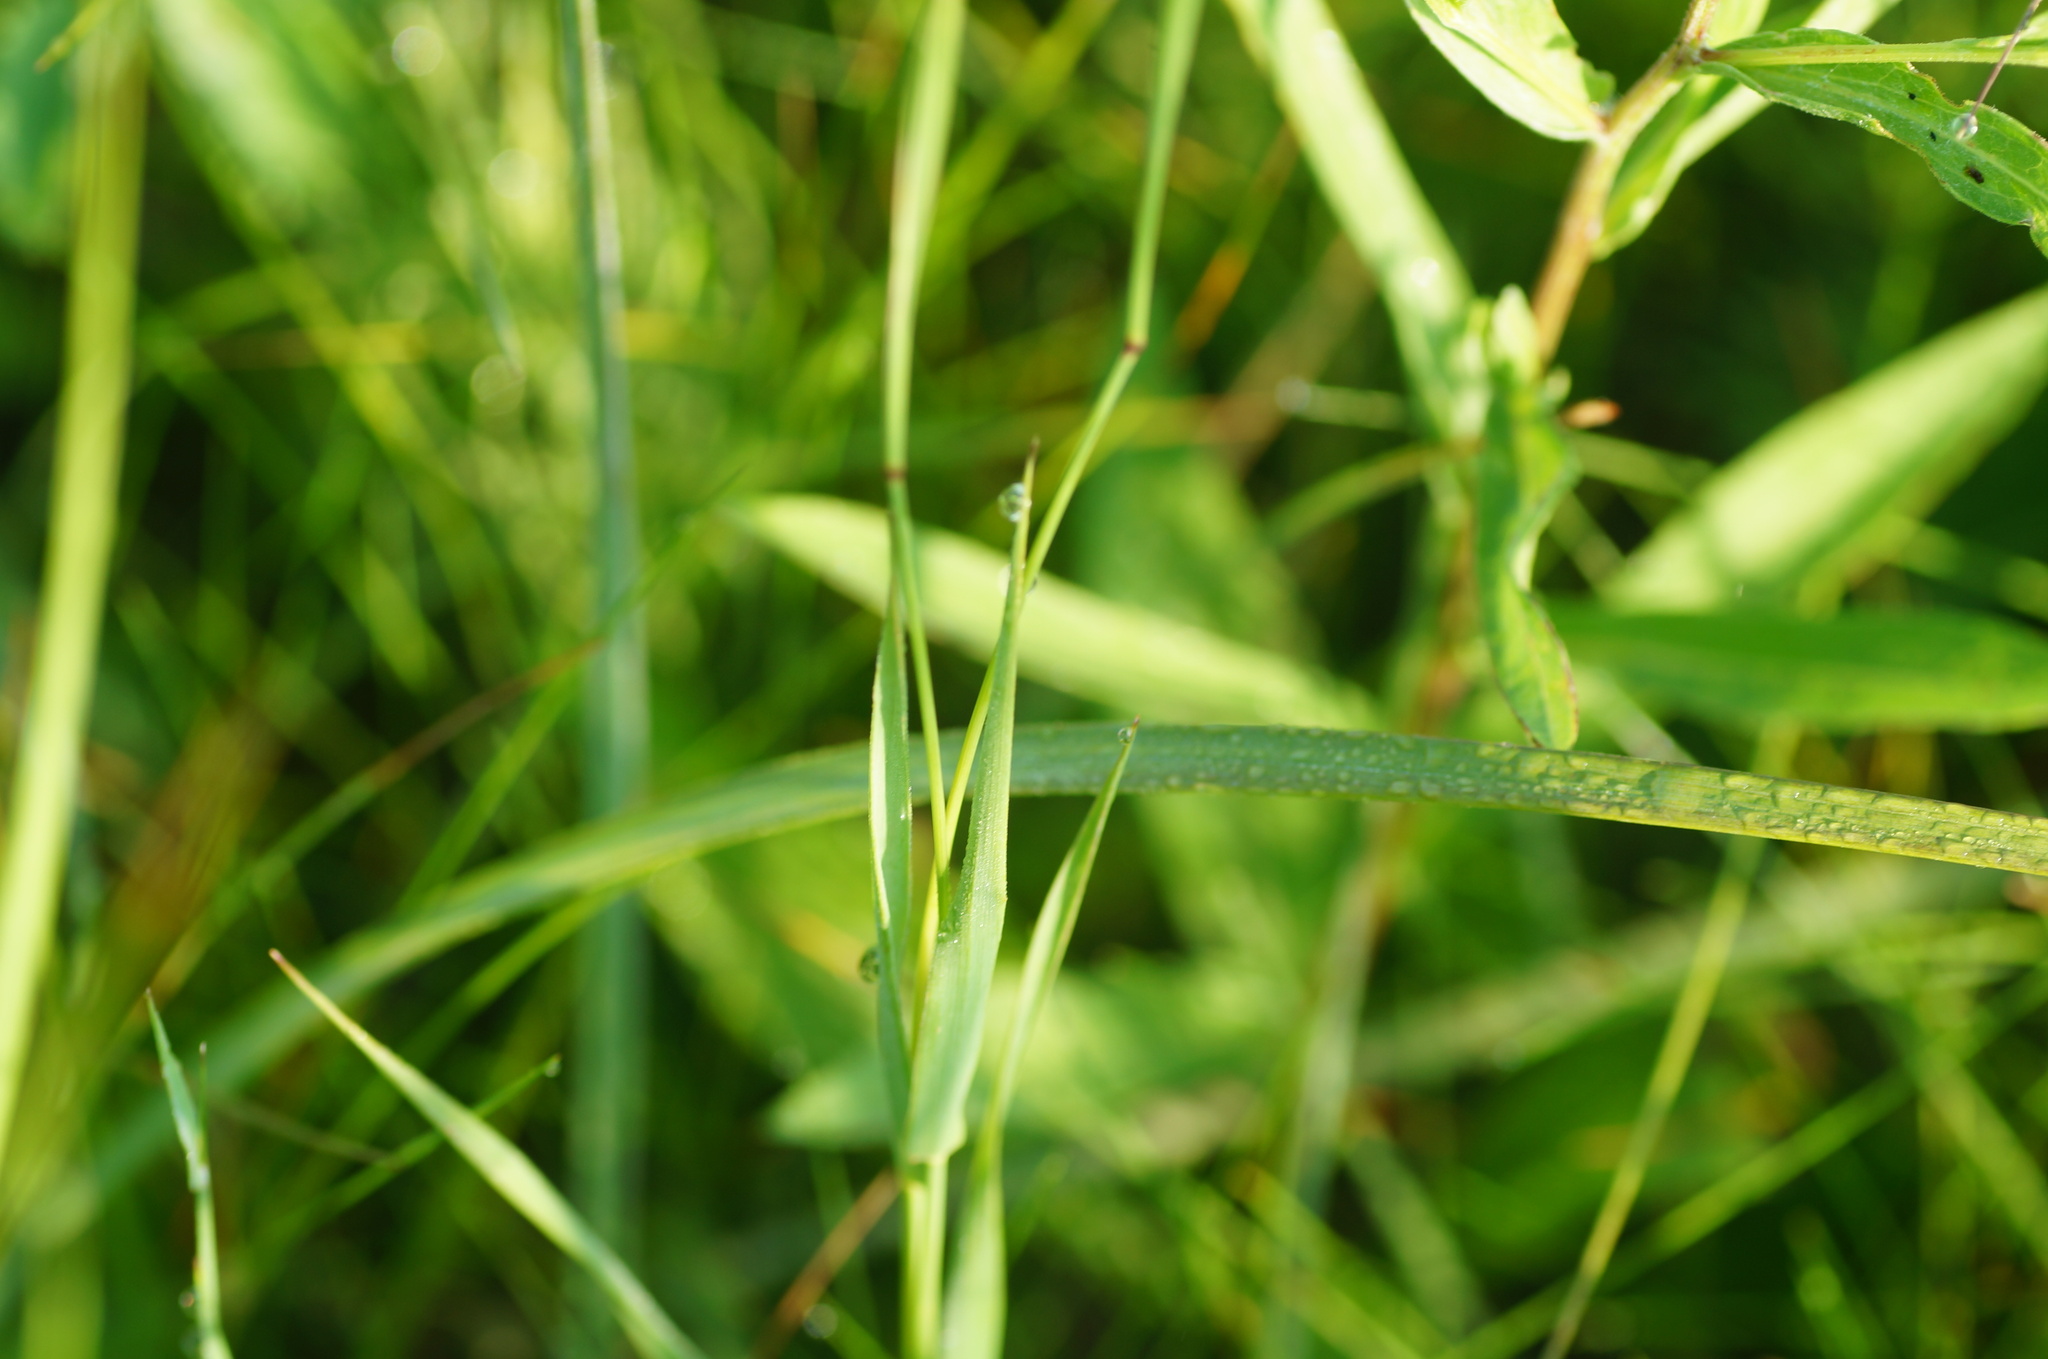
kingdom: Plantae
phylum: Tracheophyta
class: Liliopsida
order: Poales
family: Poaceae
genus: Phleum
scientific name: Phleum pratense
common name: Timothy grass
